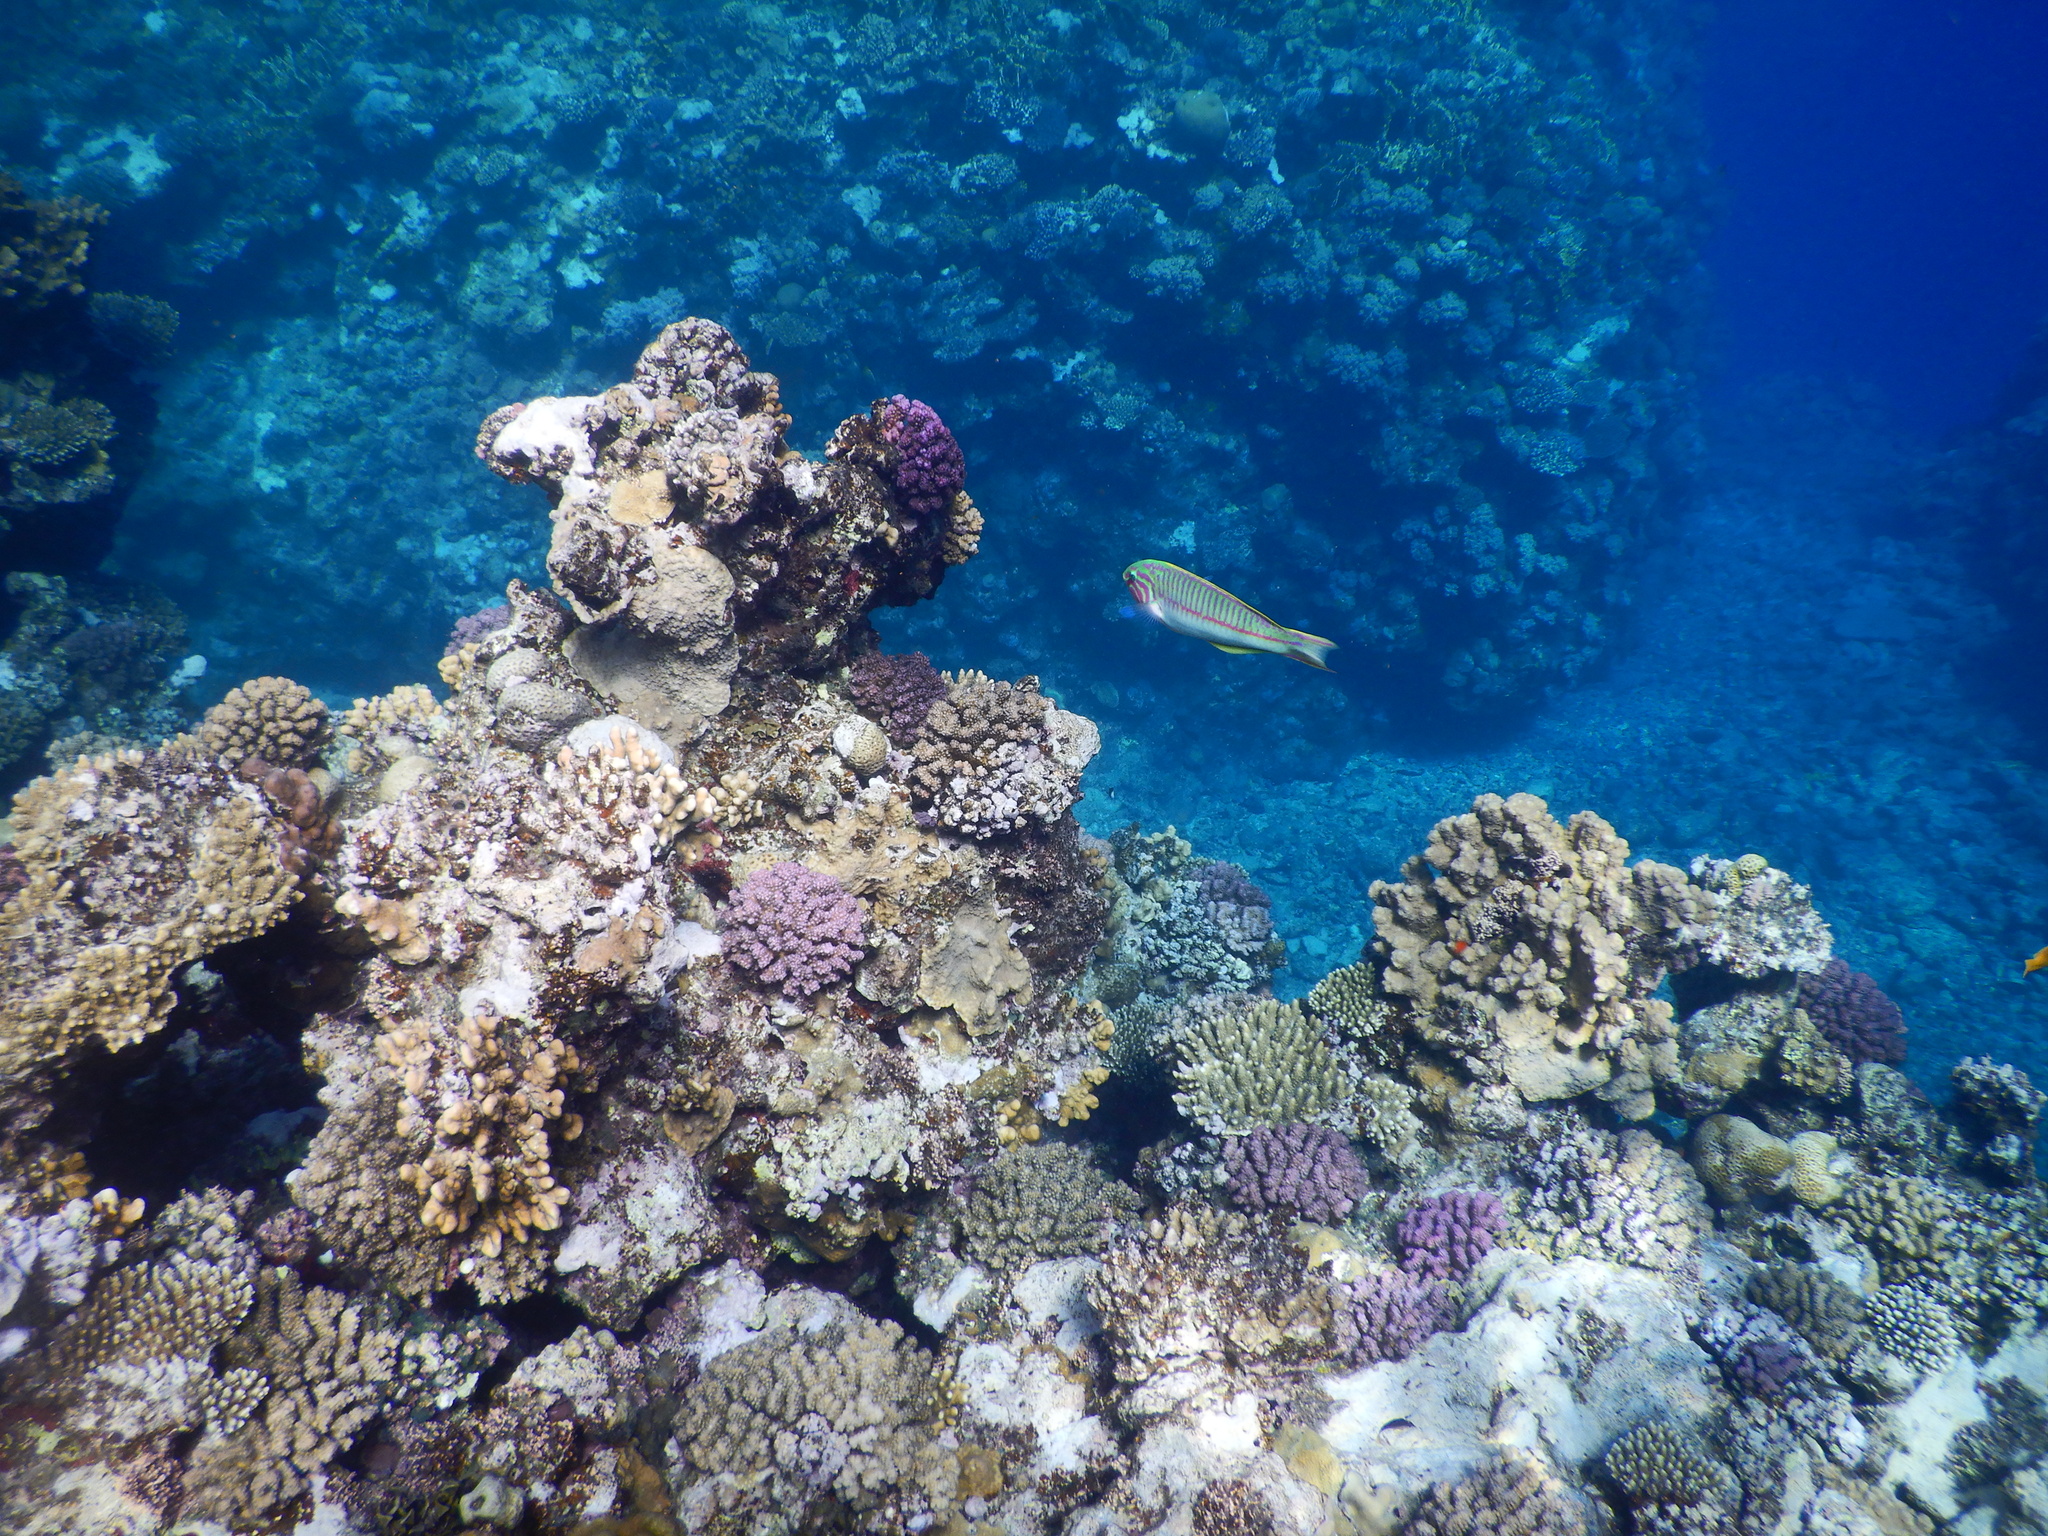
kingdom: Animalia
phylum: Chordata
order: Perciformes
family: Labridae
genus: Thalassoma
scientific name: Thalassoma rueppellii
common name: Klunzinger's wrasse
